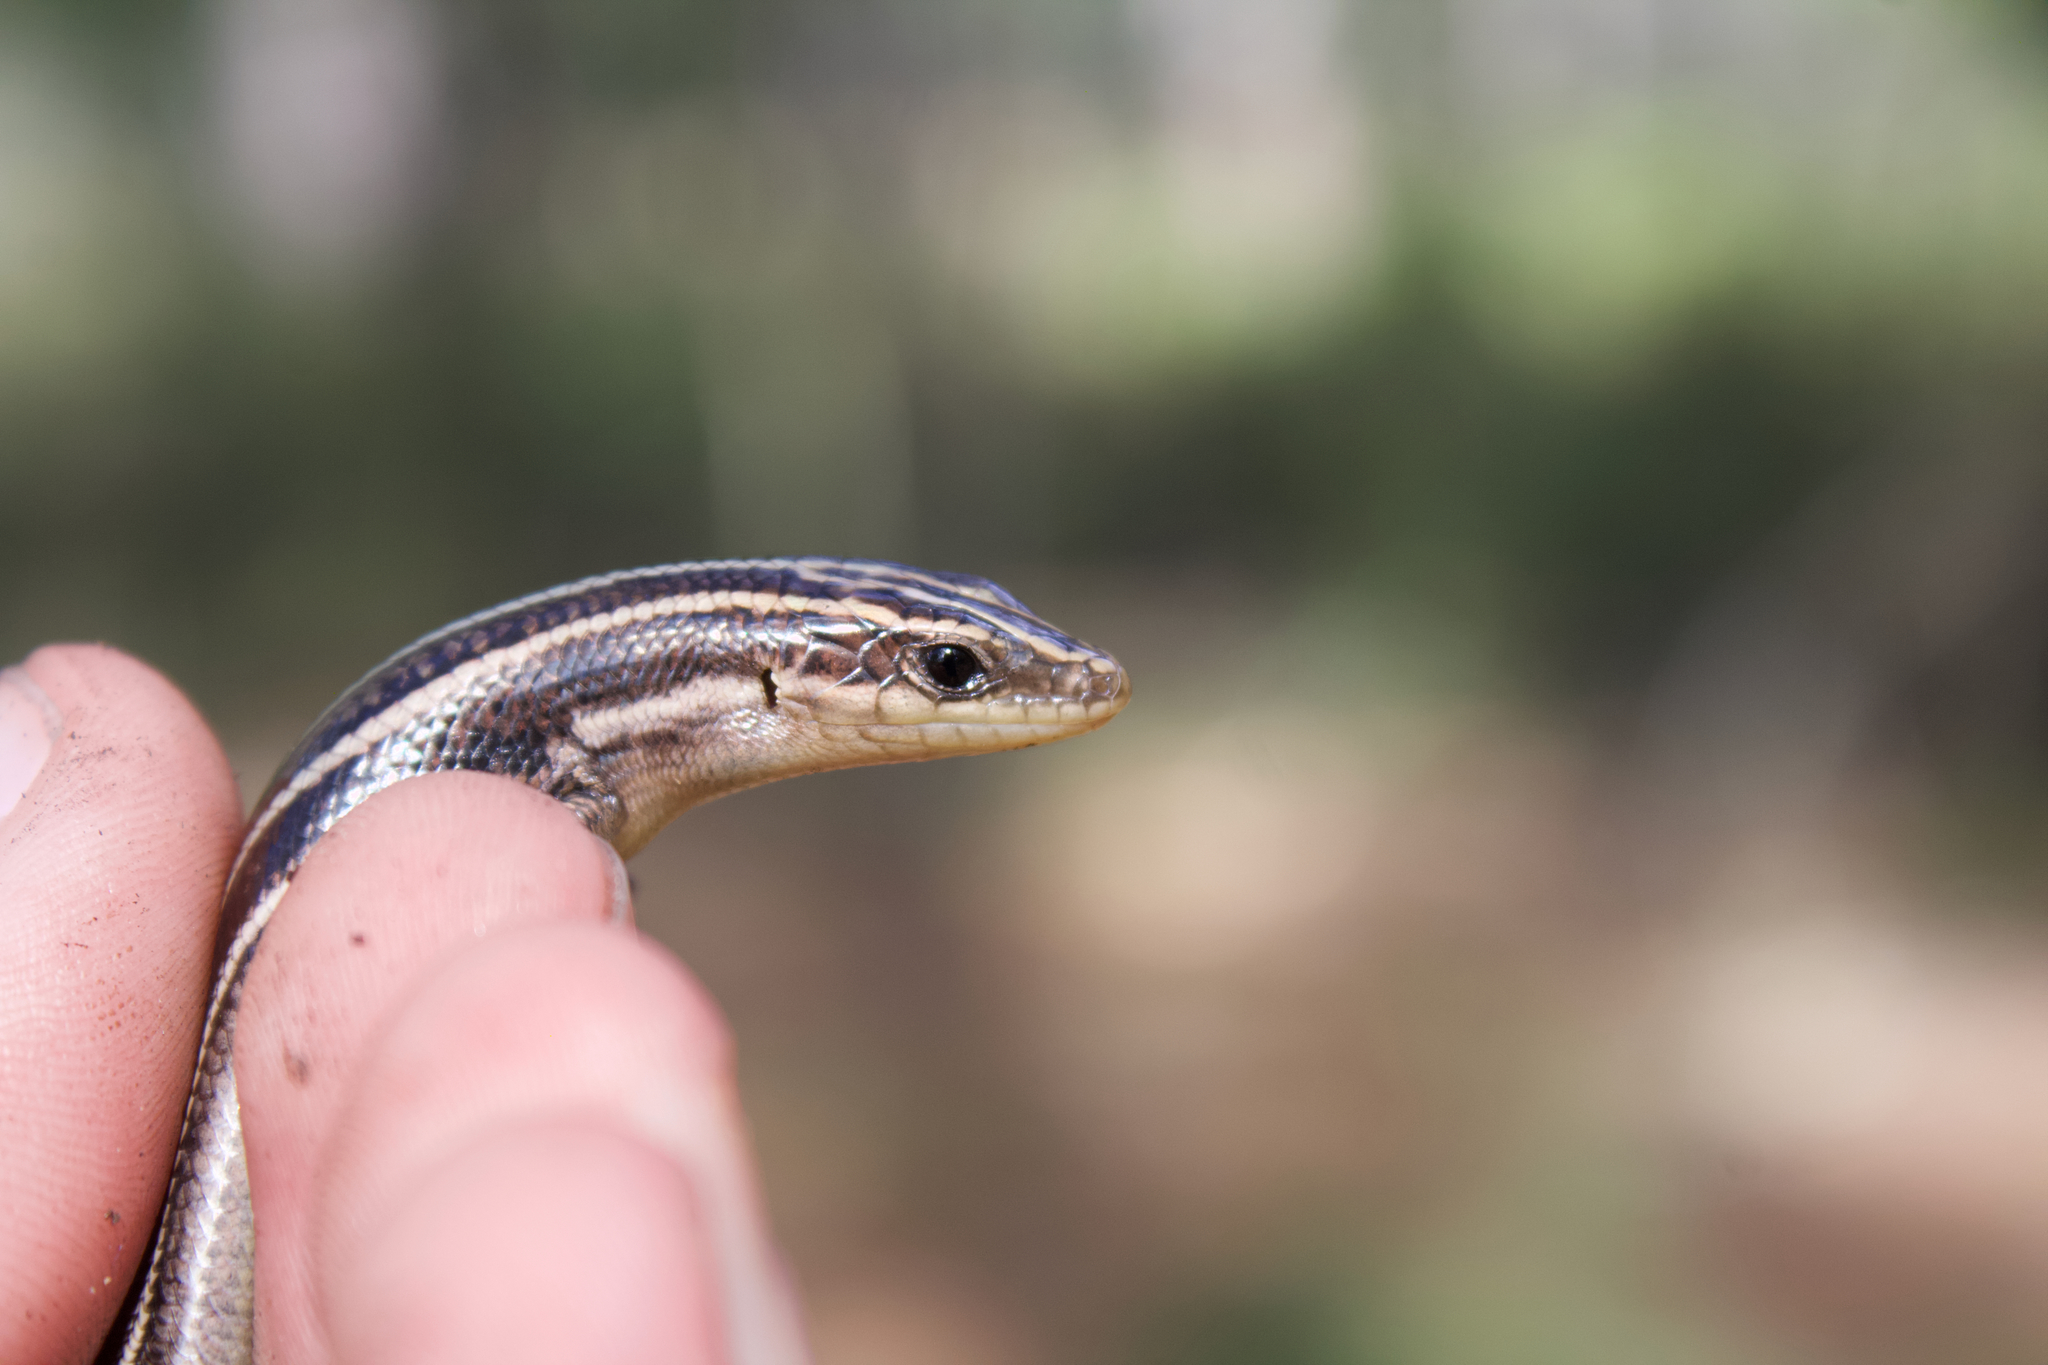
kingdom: Animalia
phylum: Chordata
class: Squamata
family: Scincidae
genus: Plestiodon
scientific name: Plestiodon fasciatus
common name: Five-lined skink
